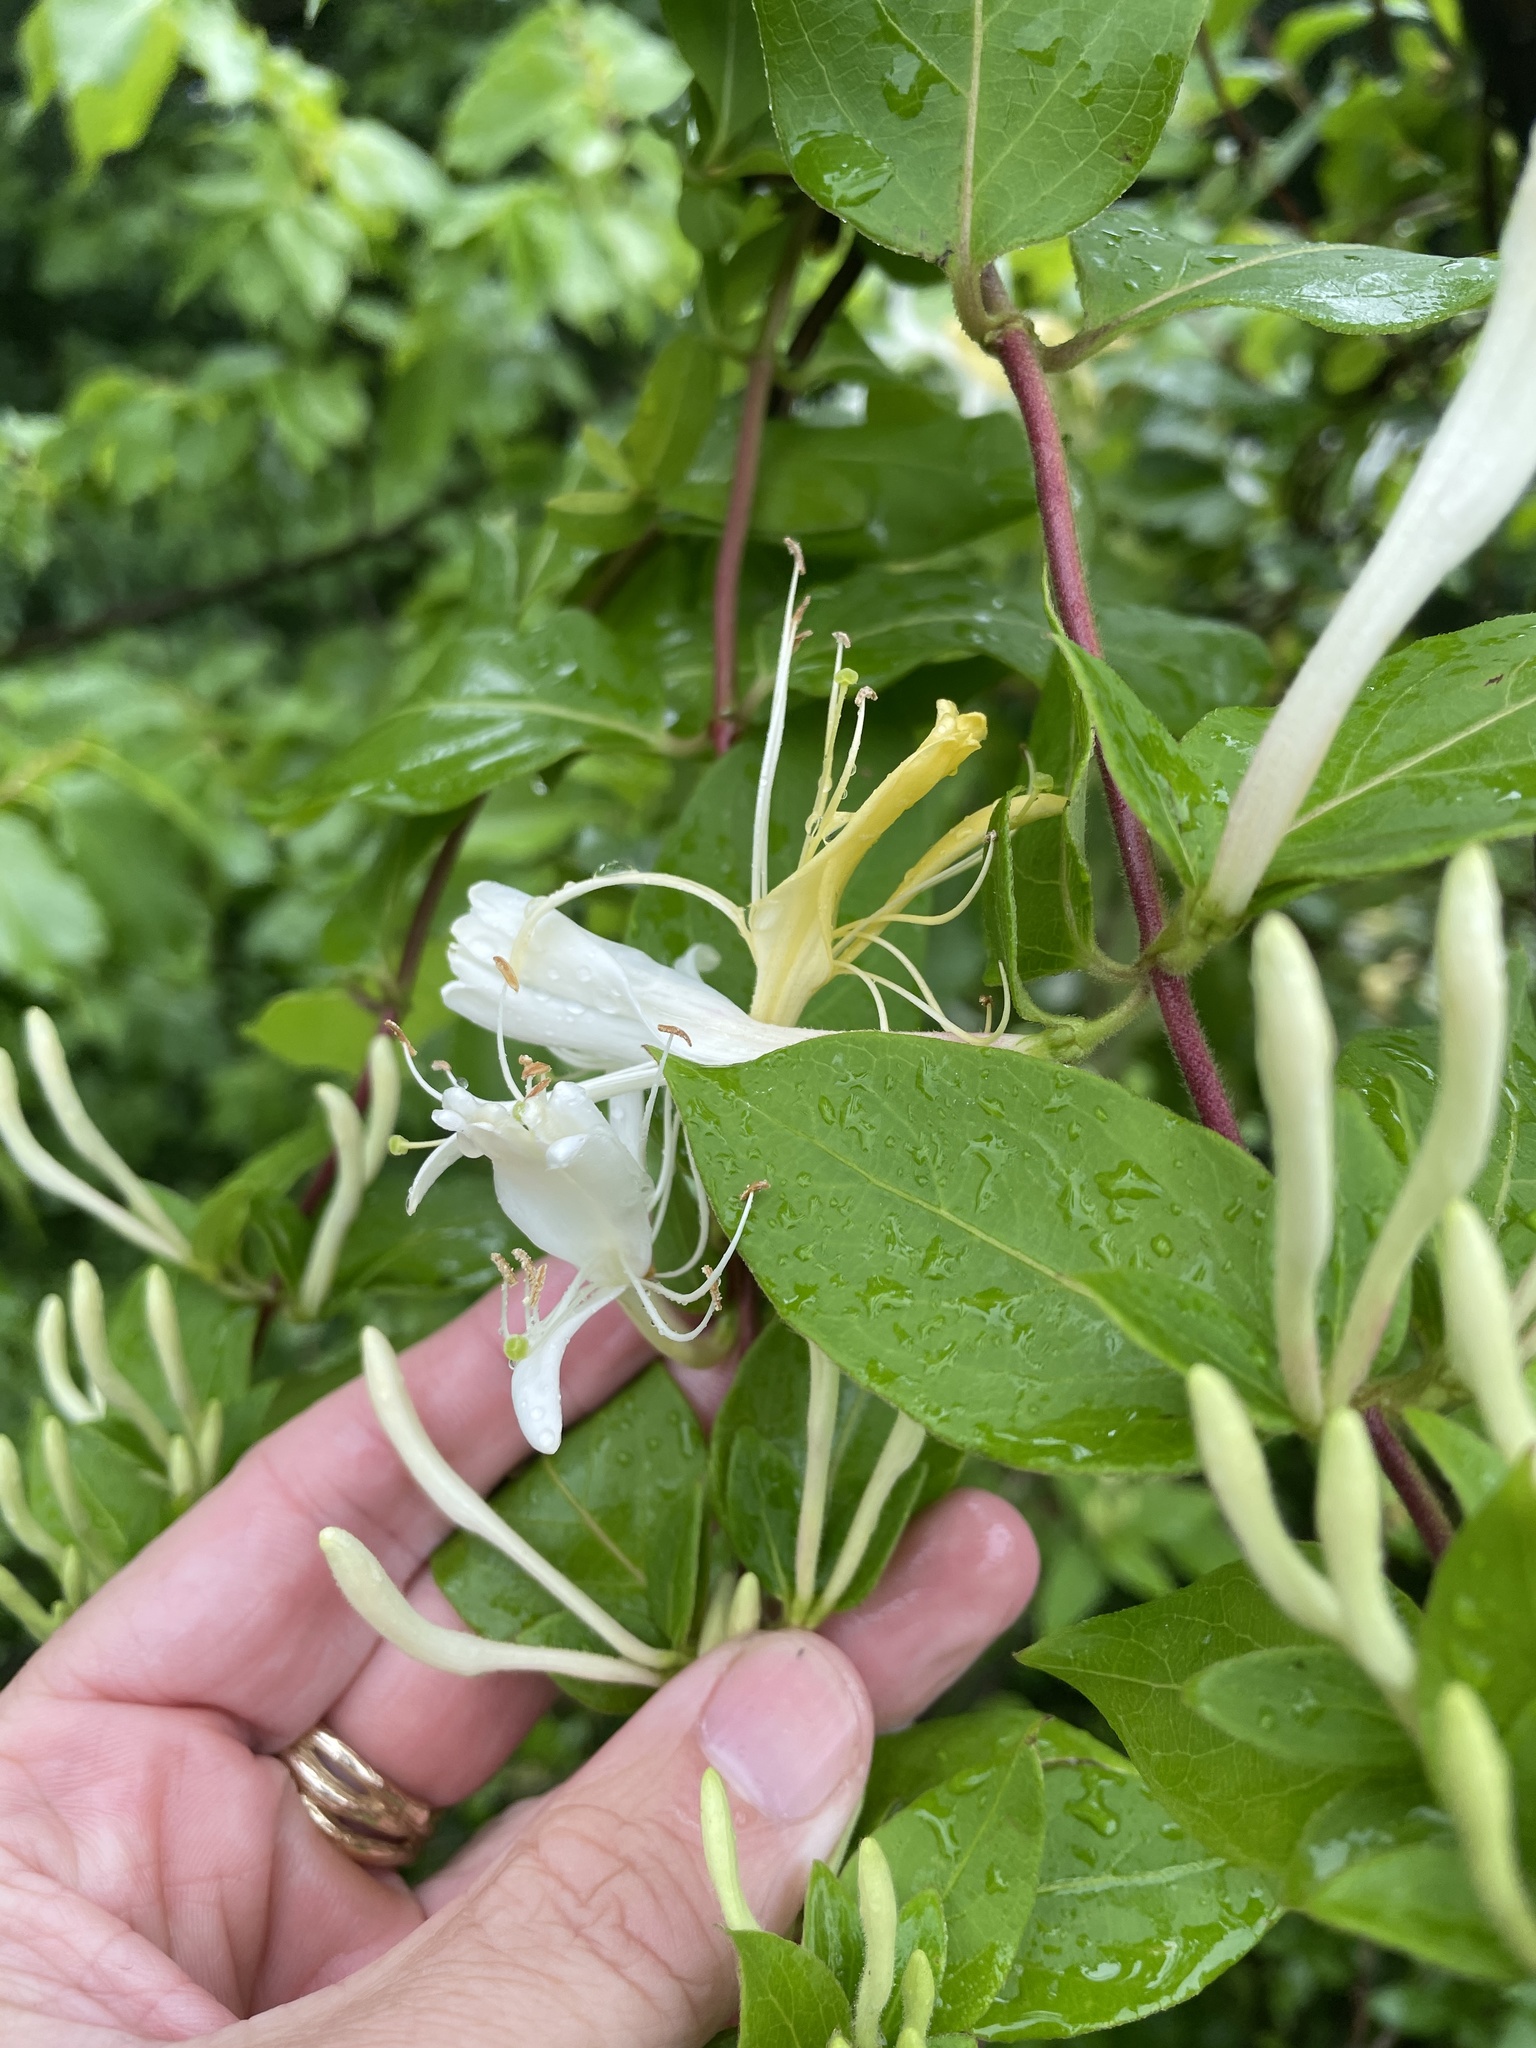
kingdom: Plantae
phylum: Tracheophyta
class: Magnoliopsida
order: Dipsacales
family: Caprifoliaceae
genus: Lonicera
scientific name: Lonicera japonica
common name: Japanese honeysuckle
